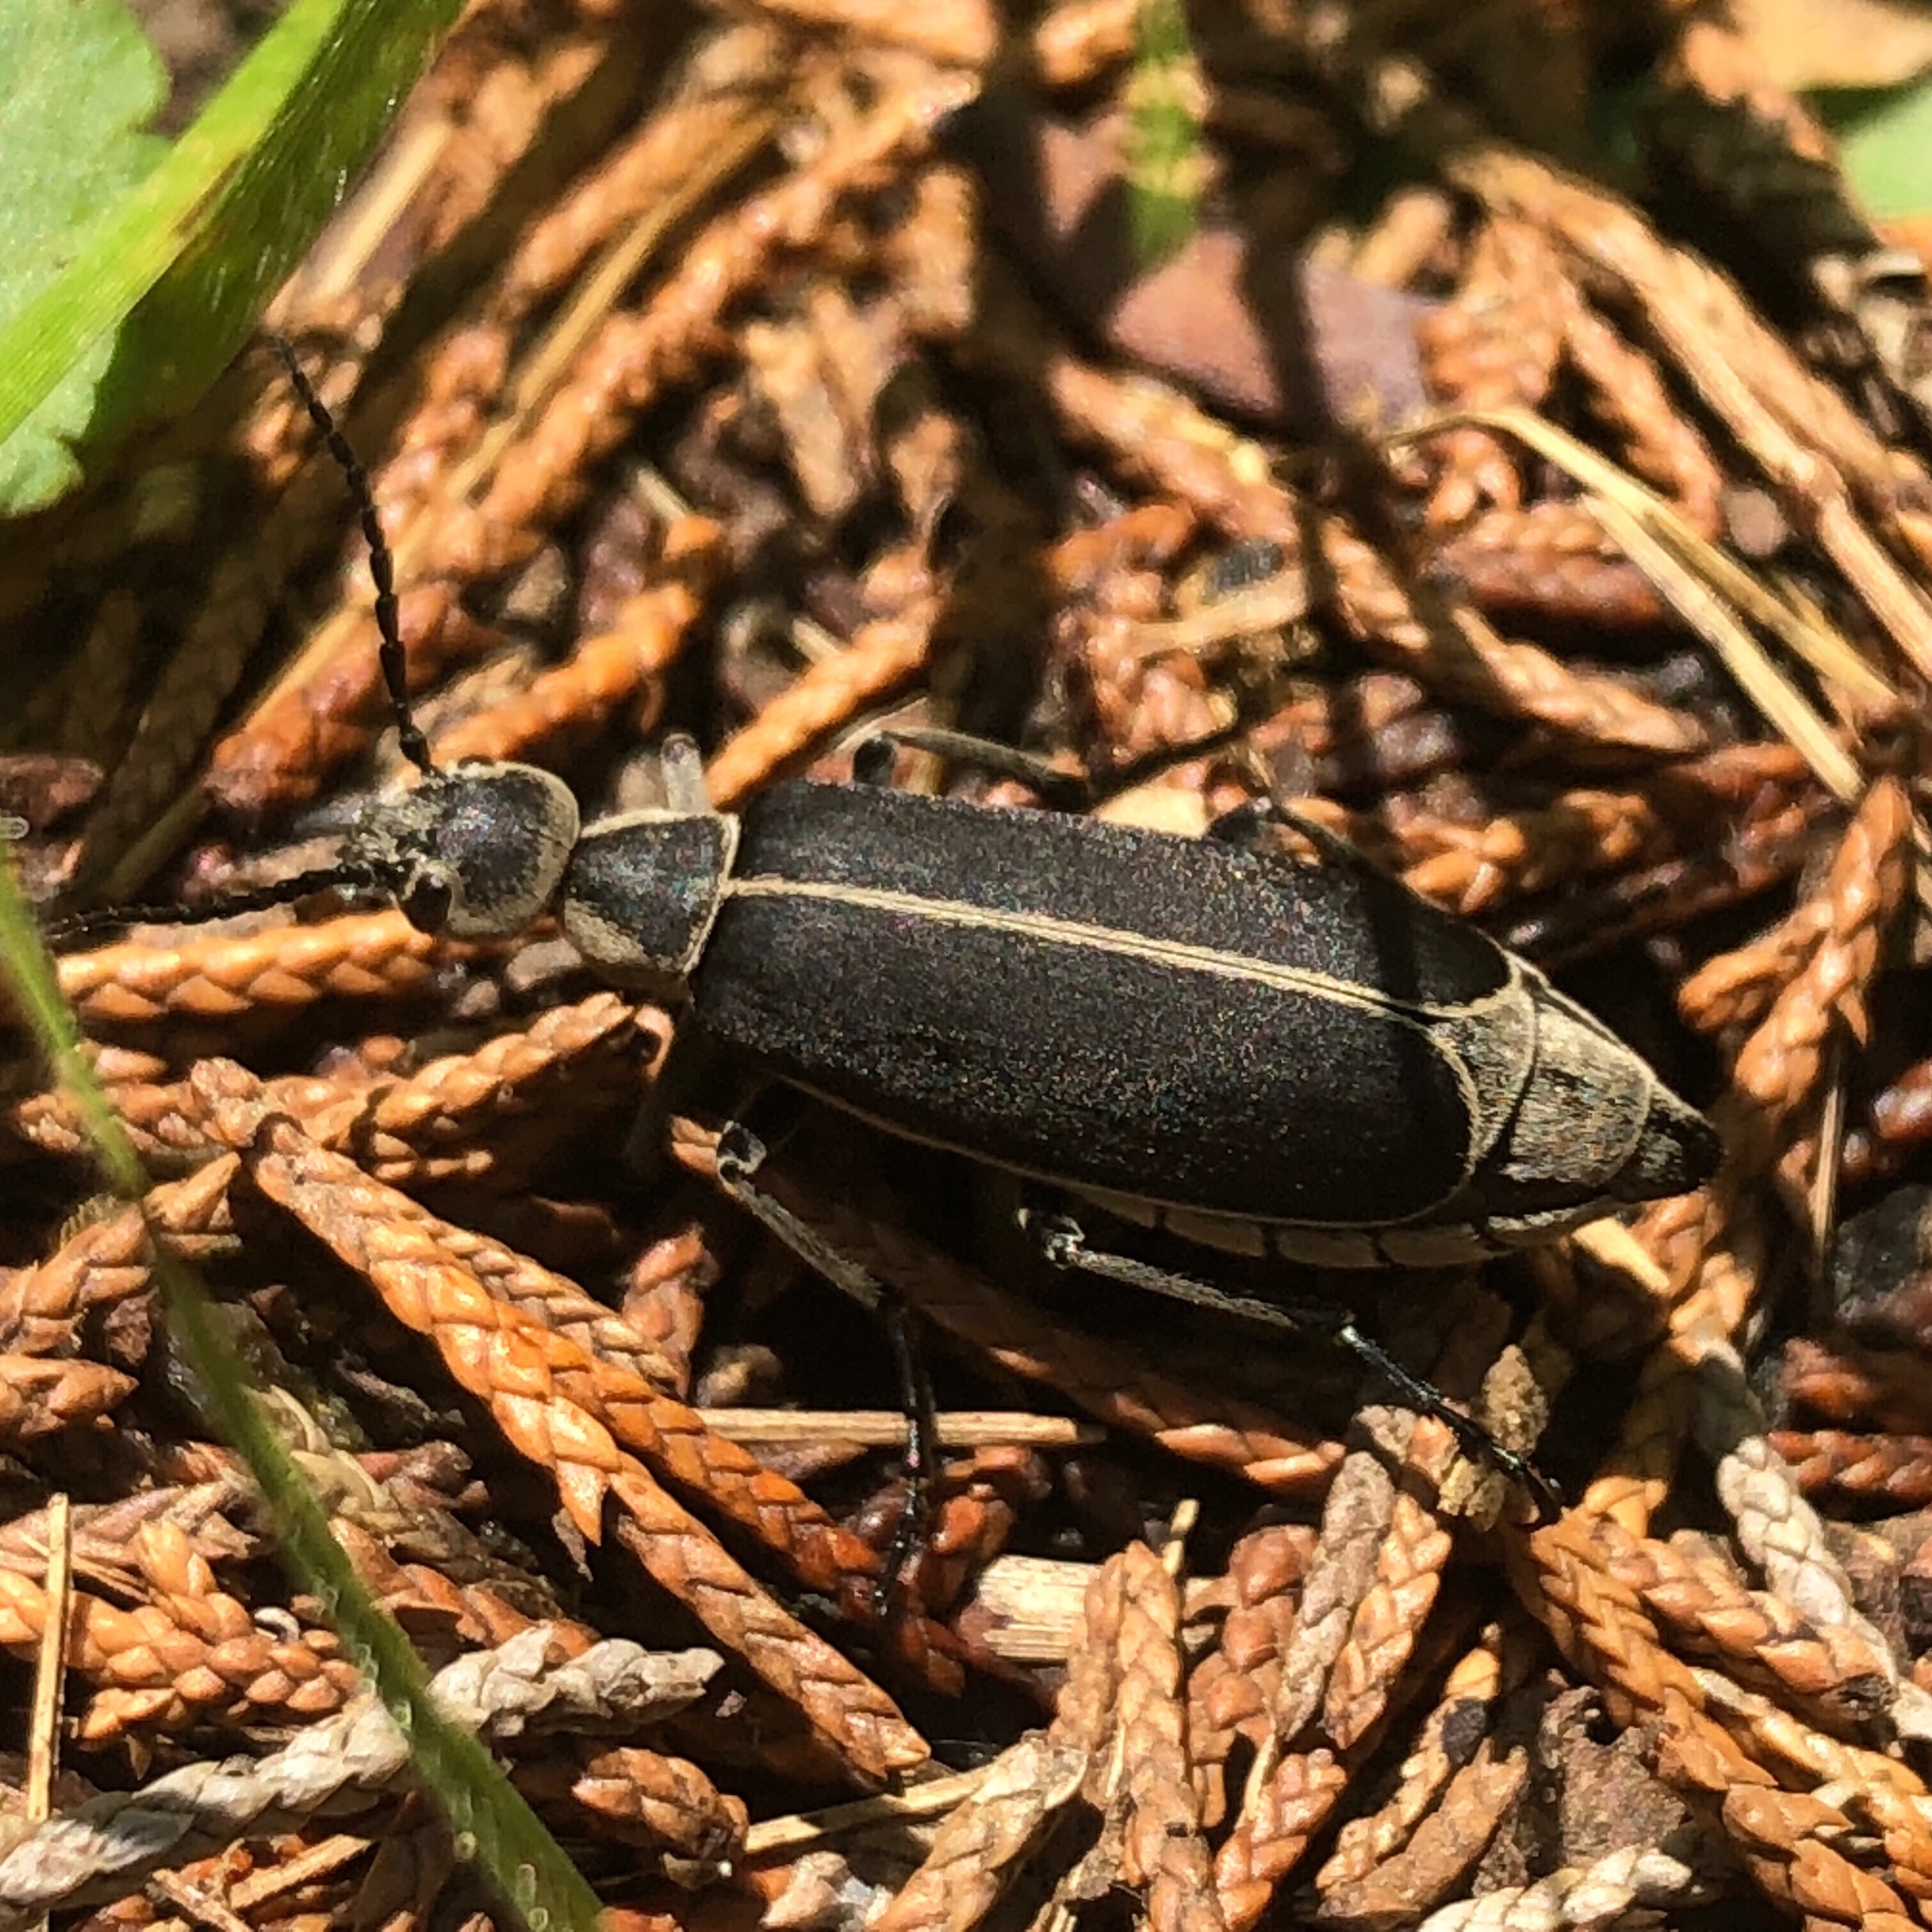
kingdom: Animalia
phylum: Arthropoda
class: Insecta
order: Coleoptera
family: Meloidae
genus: Epicauta
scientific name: Epicauta cinerea
